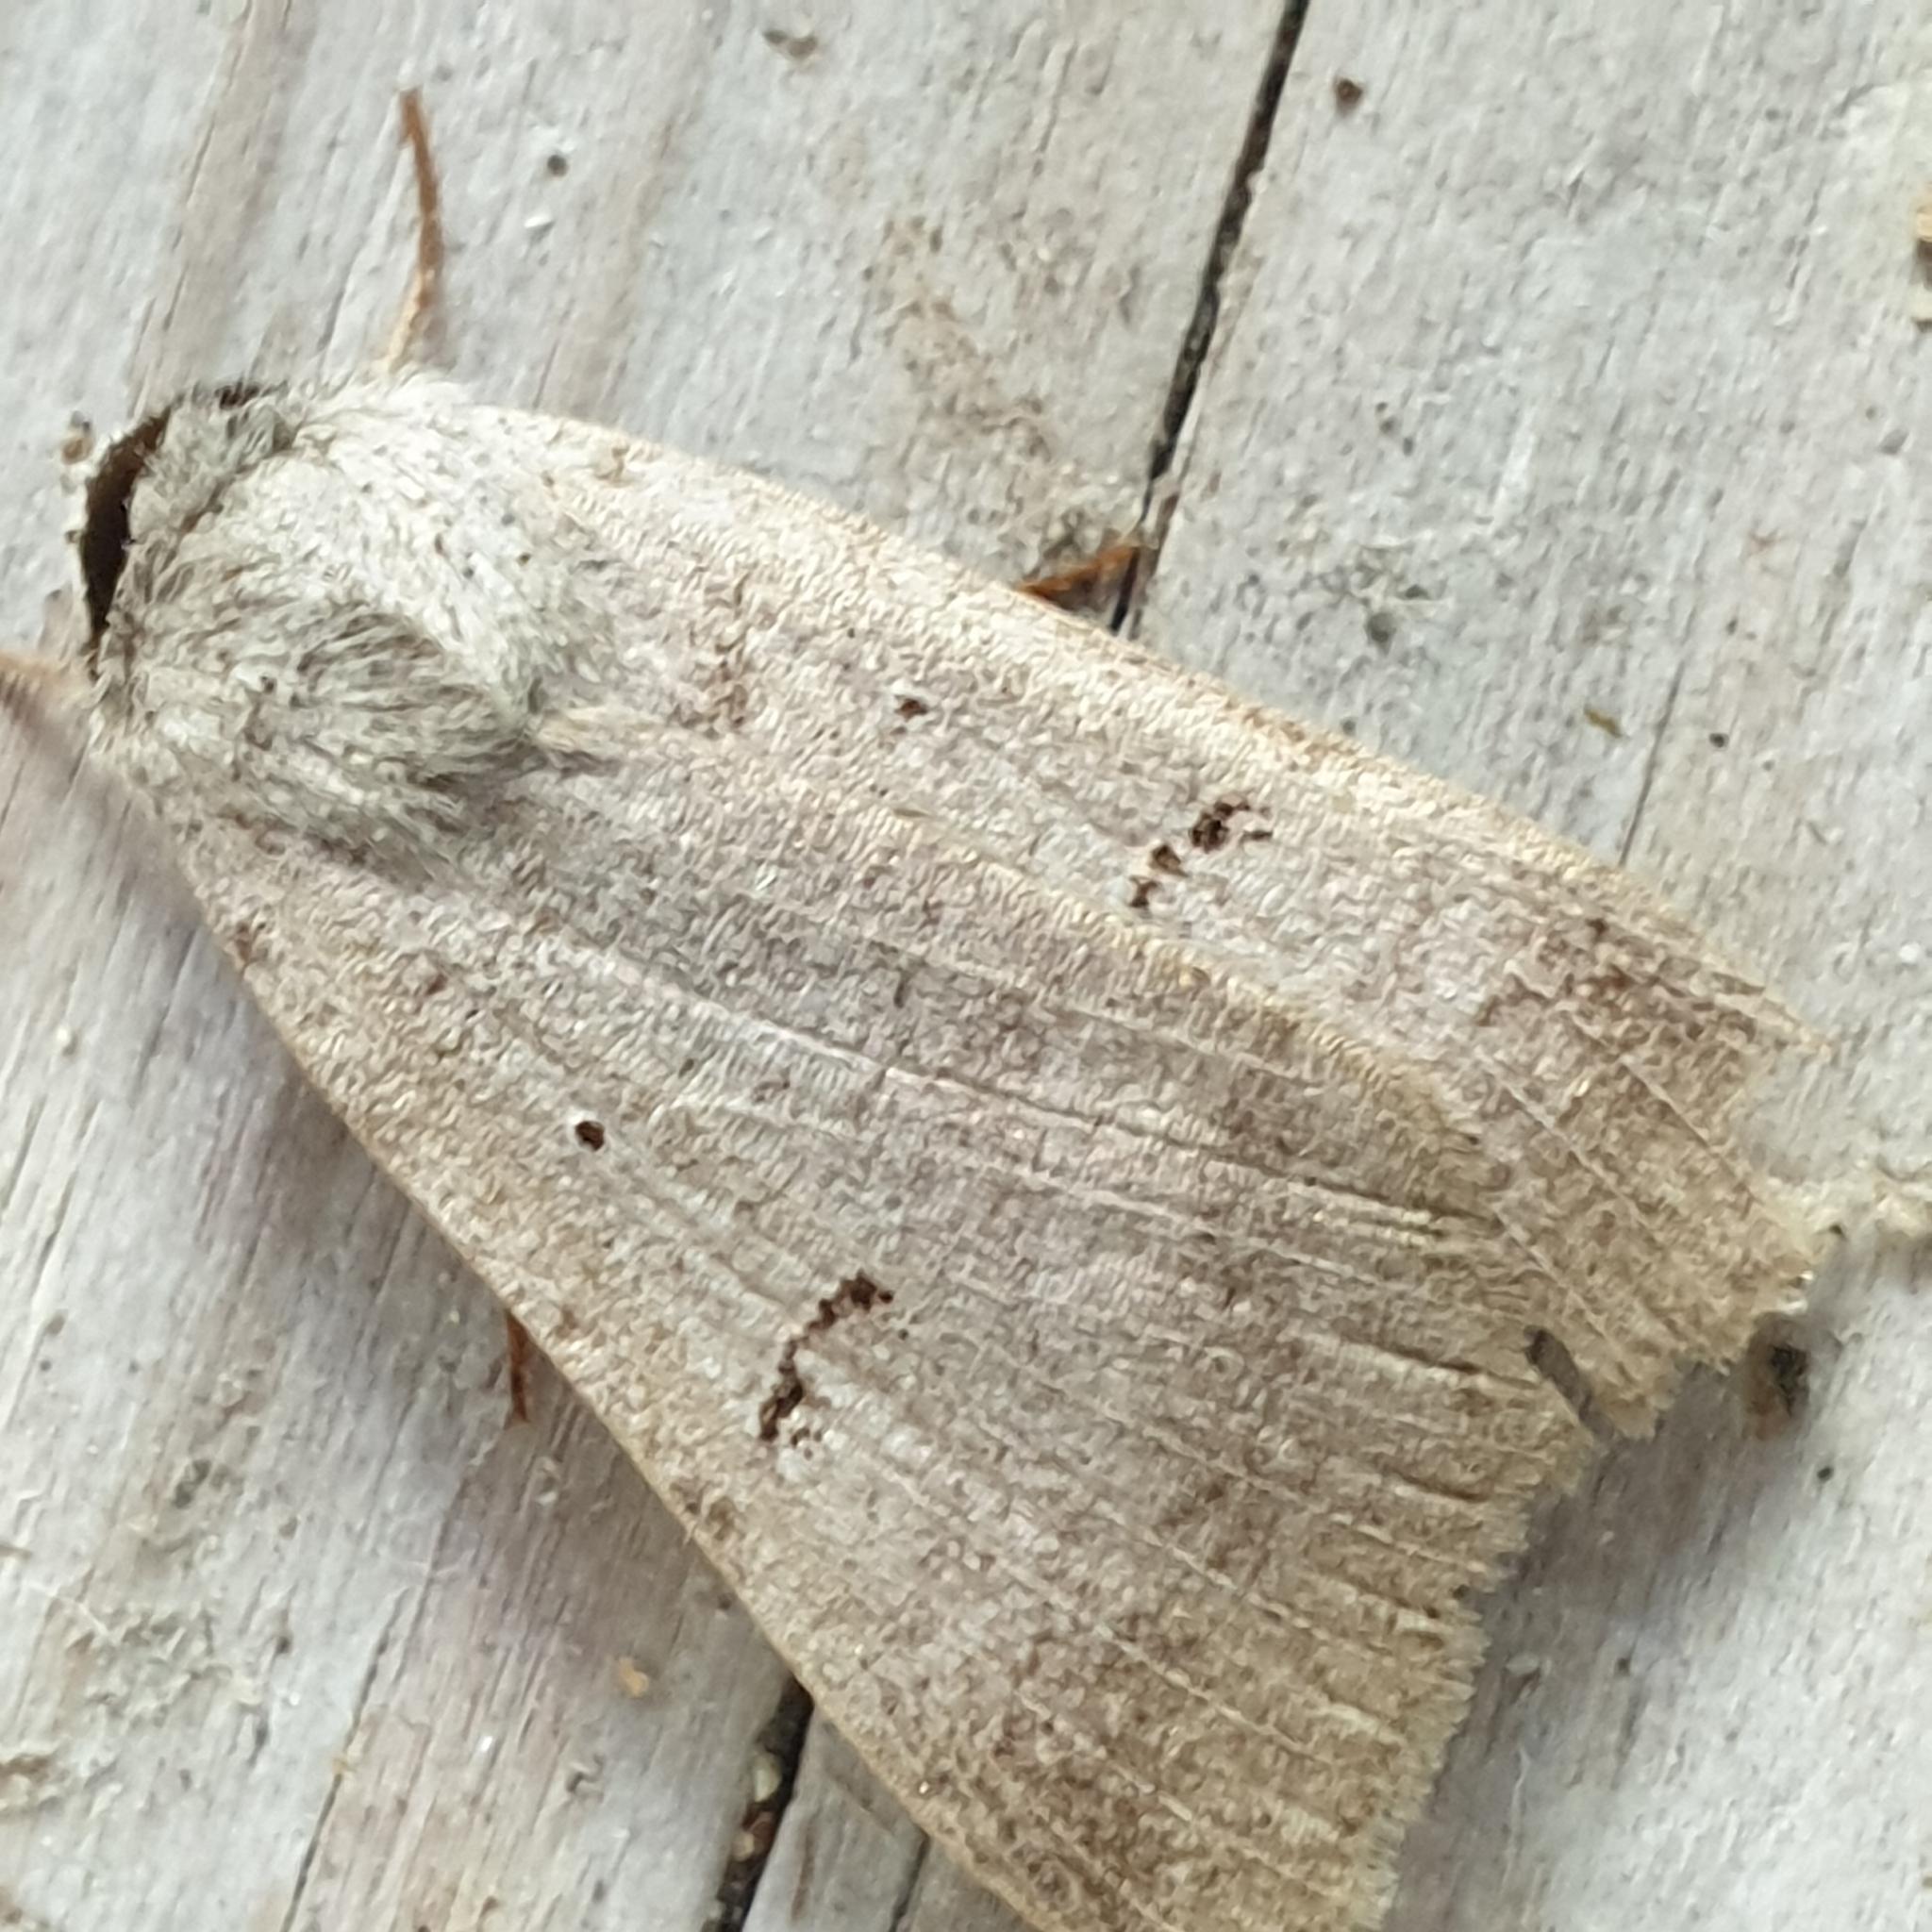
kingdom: Animalia
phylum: Arthropoda
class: Insecta
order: Lepidoptera
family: Erebidae
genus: Lygephila
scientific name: Lygephila craccae
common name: Scarce blackneck
